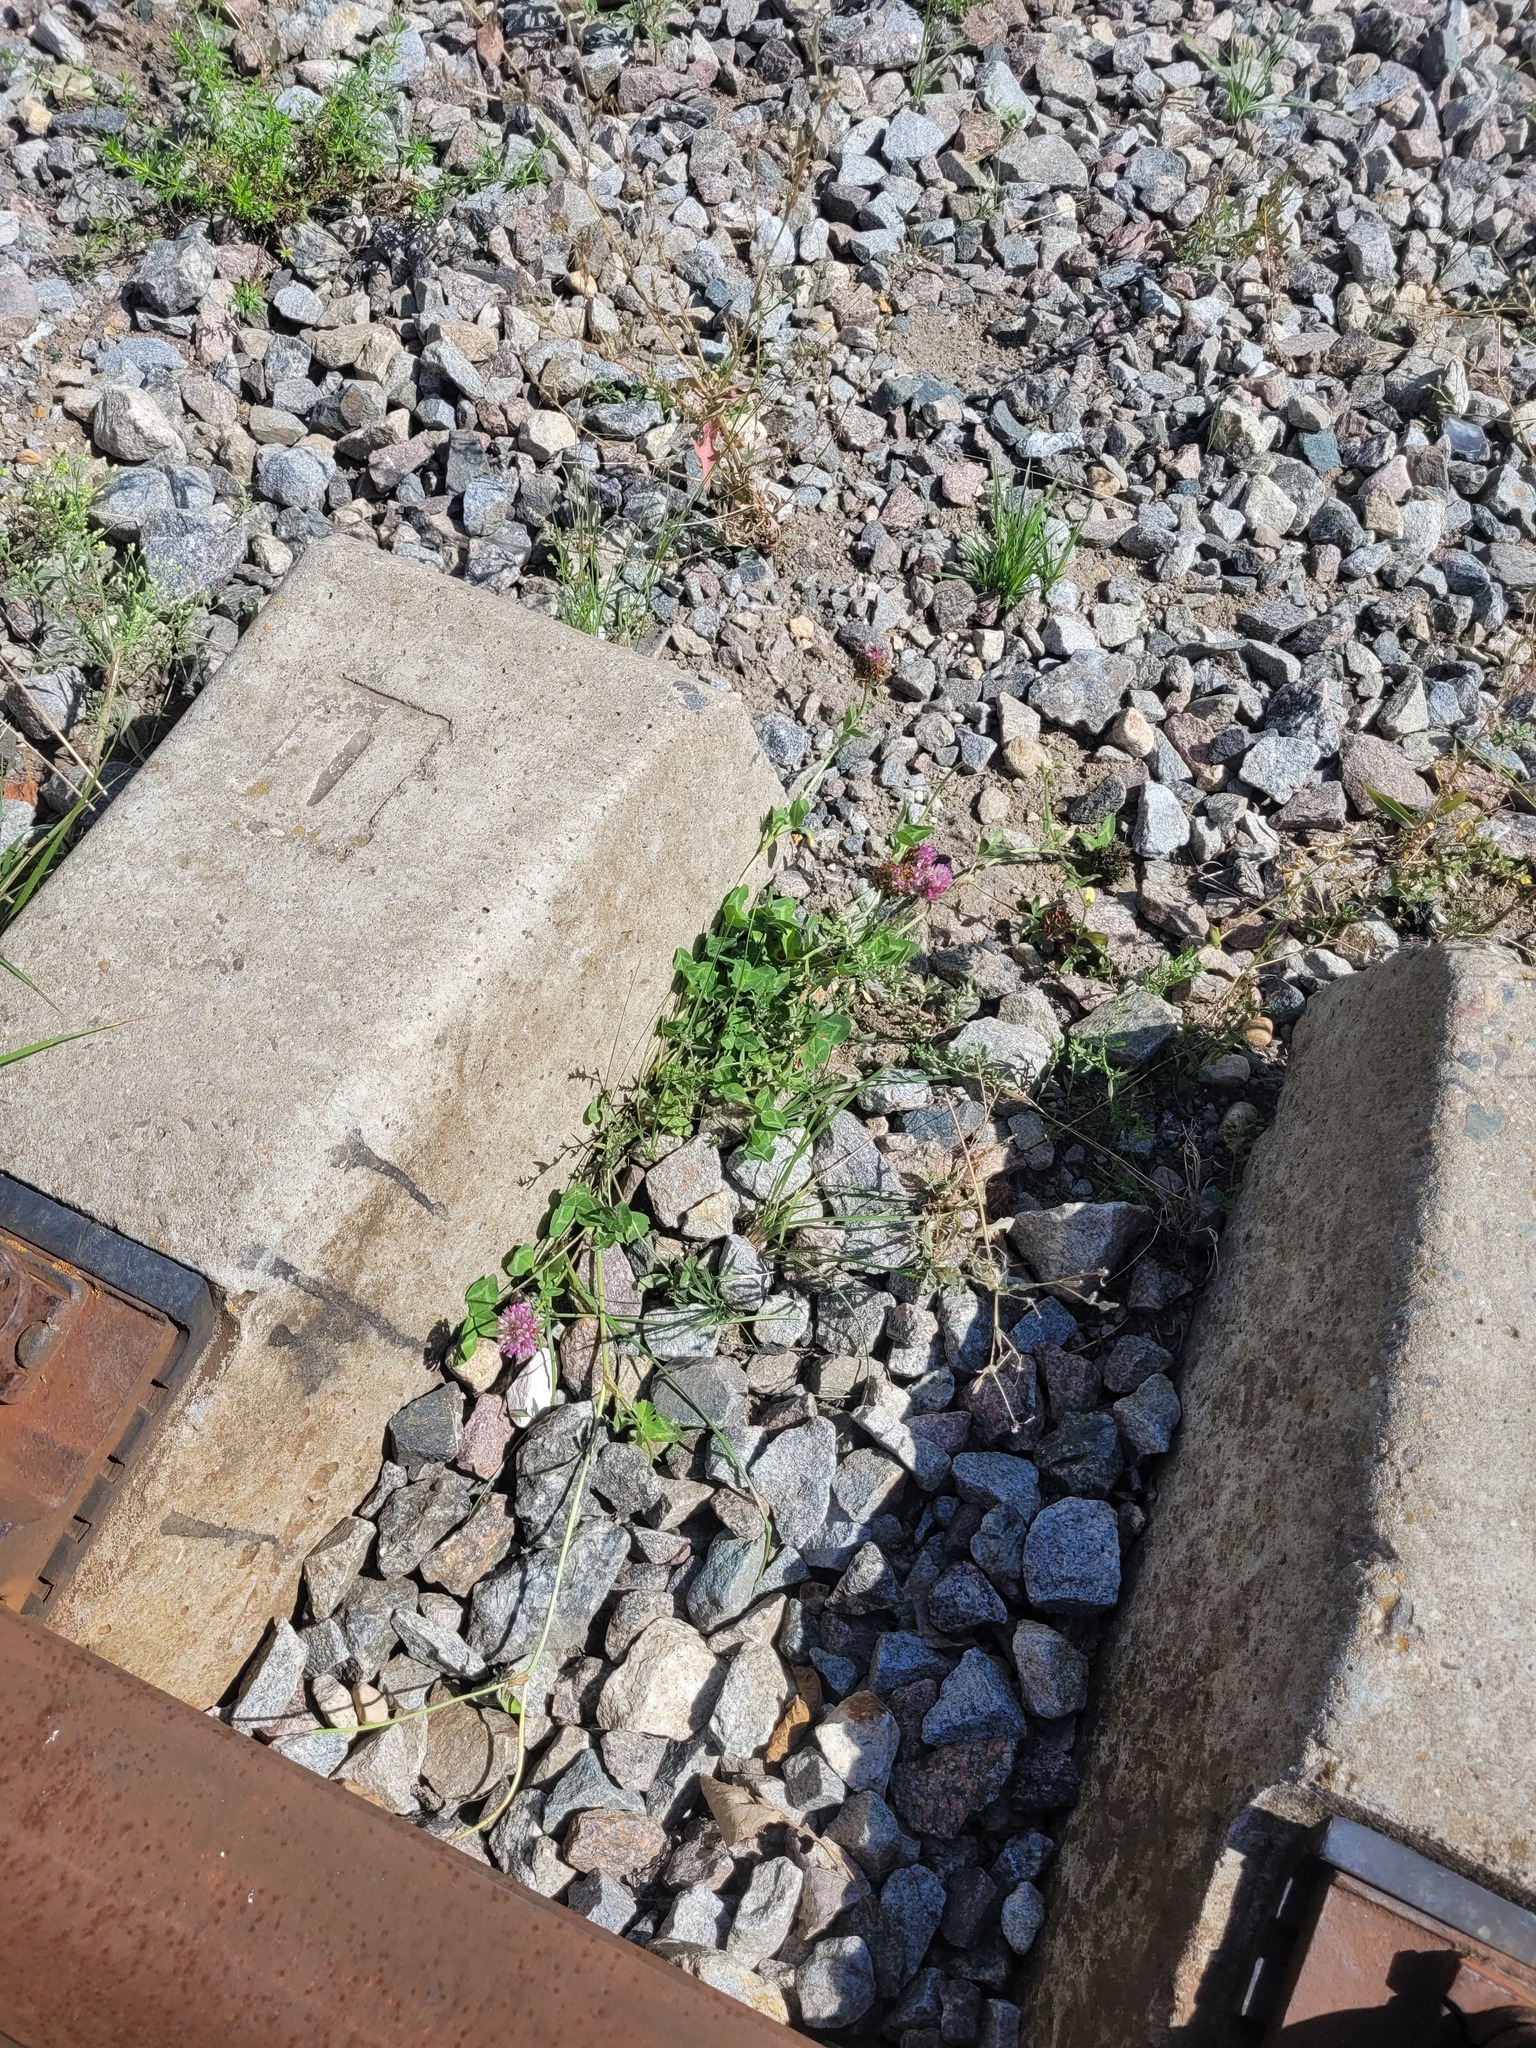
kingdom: Plantae
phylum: Tracheophyta
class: Magnoliopsida
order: Fabales
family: Fabaceae
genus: Trifolium
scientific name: Trifolium pratense
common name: Red clover
